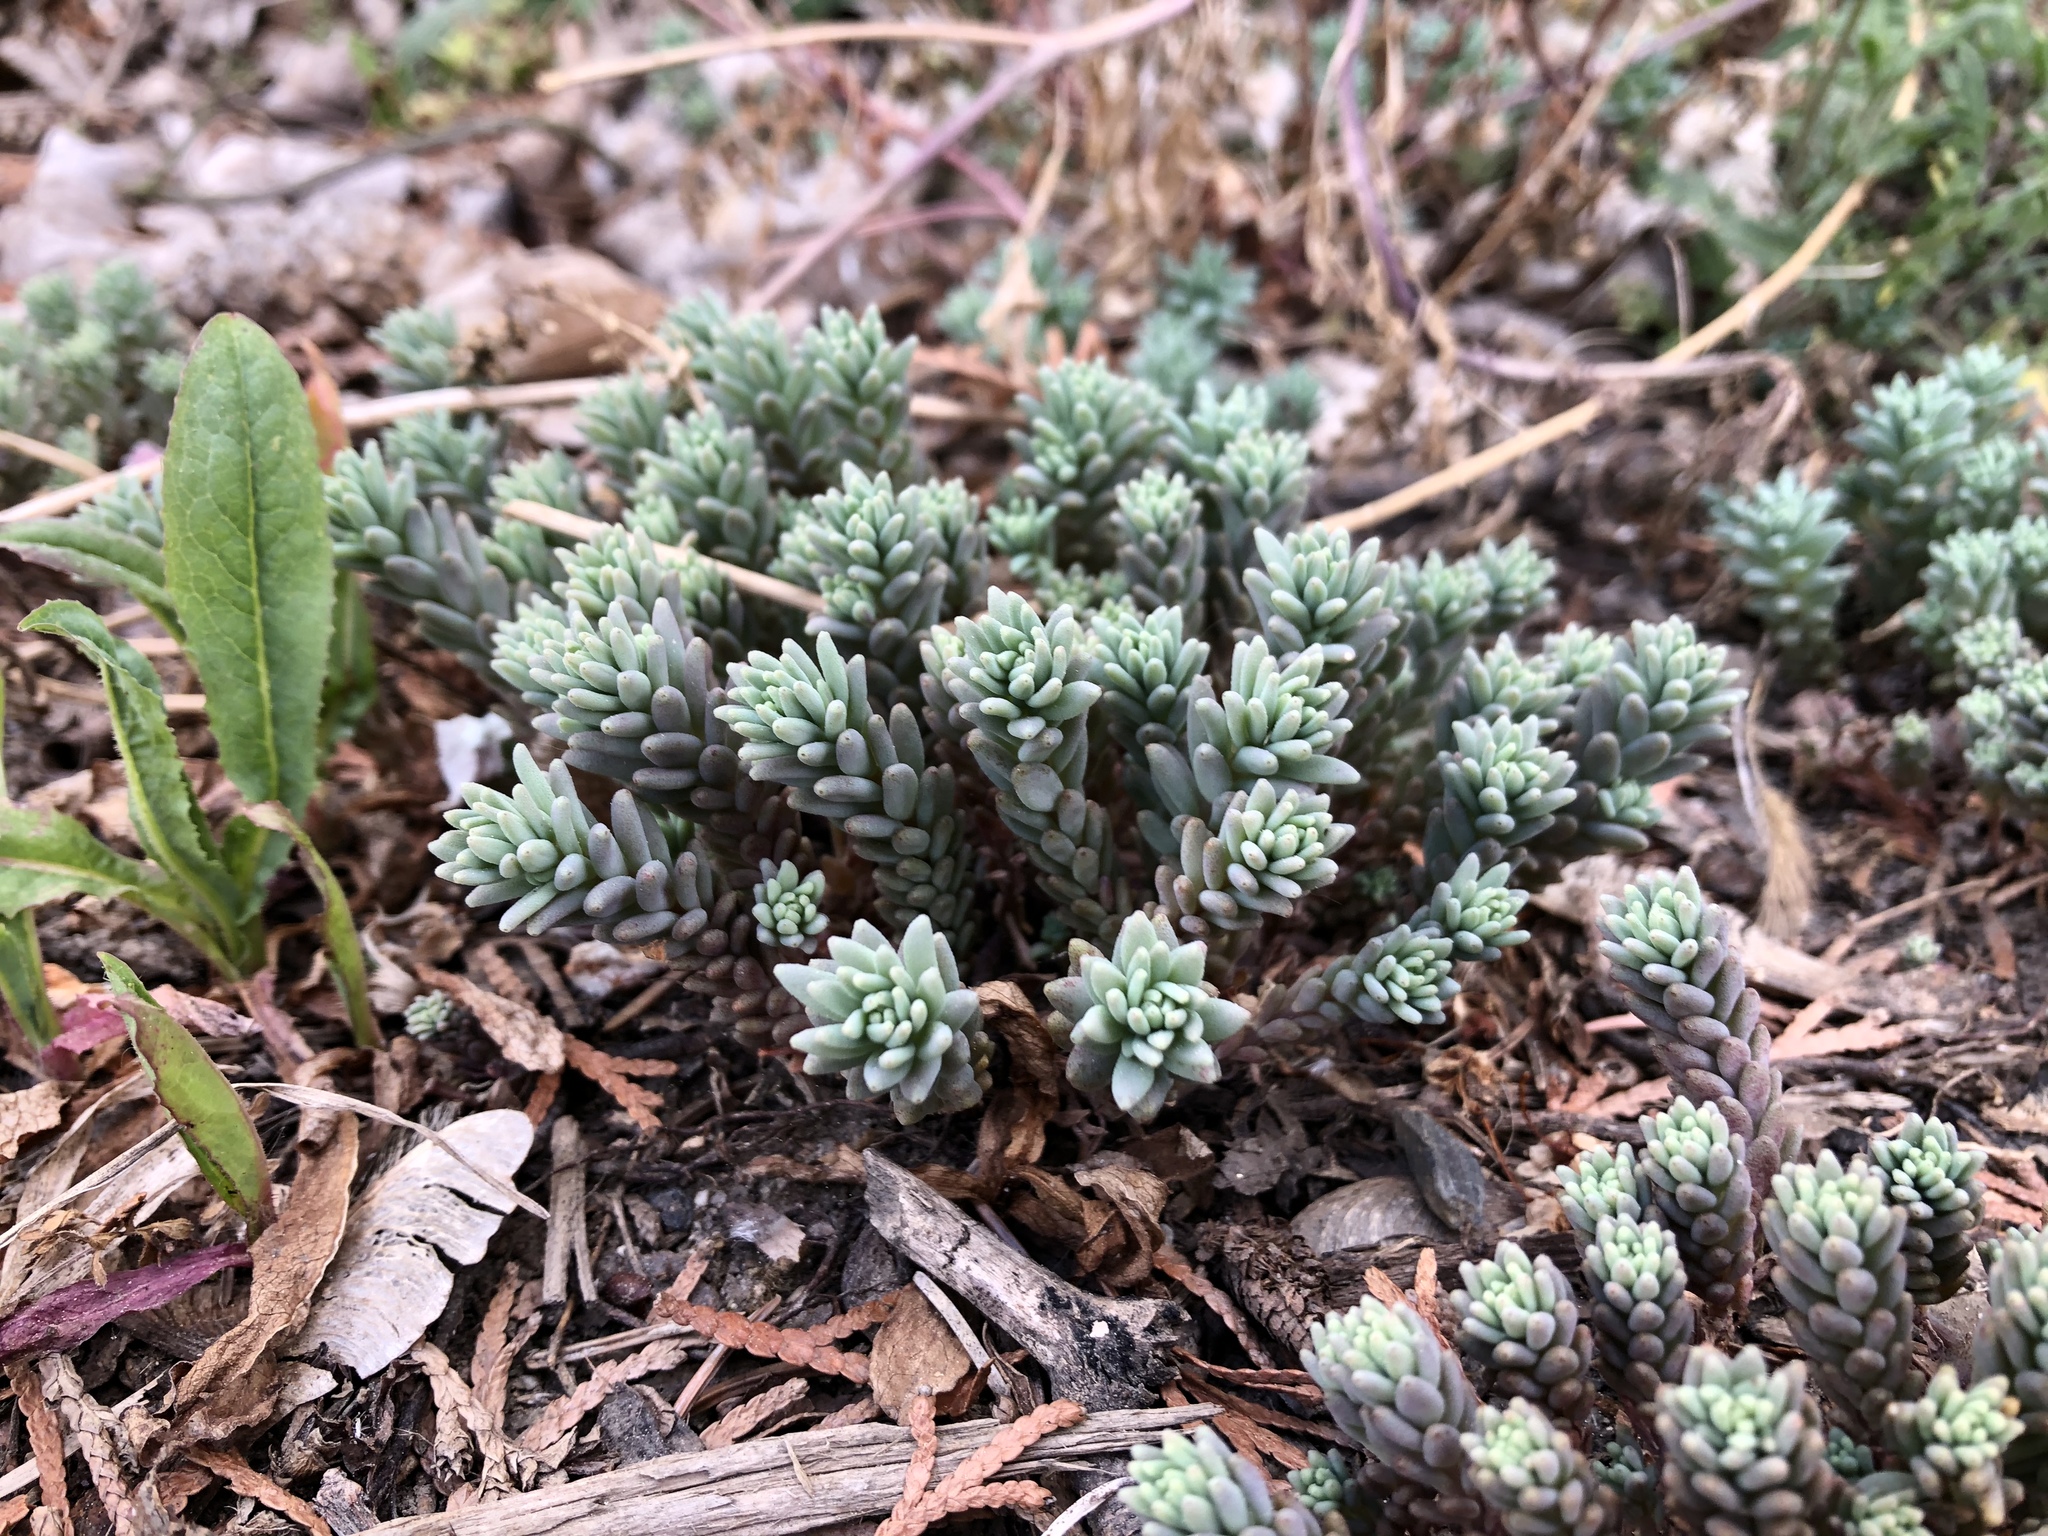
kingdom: Plantae
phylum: Tracheophyta
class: Magnoliopsida
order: Saxifragales
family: Crassulaceae
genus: Sedum
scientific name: Sedum hispanicum
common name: Spanish stonecrop
